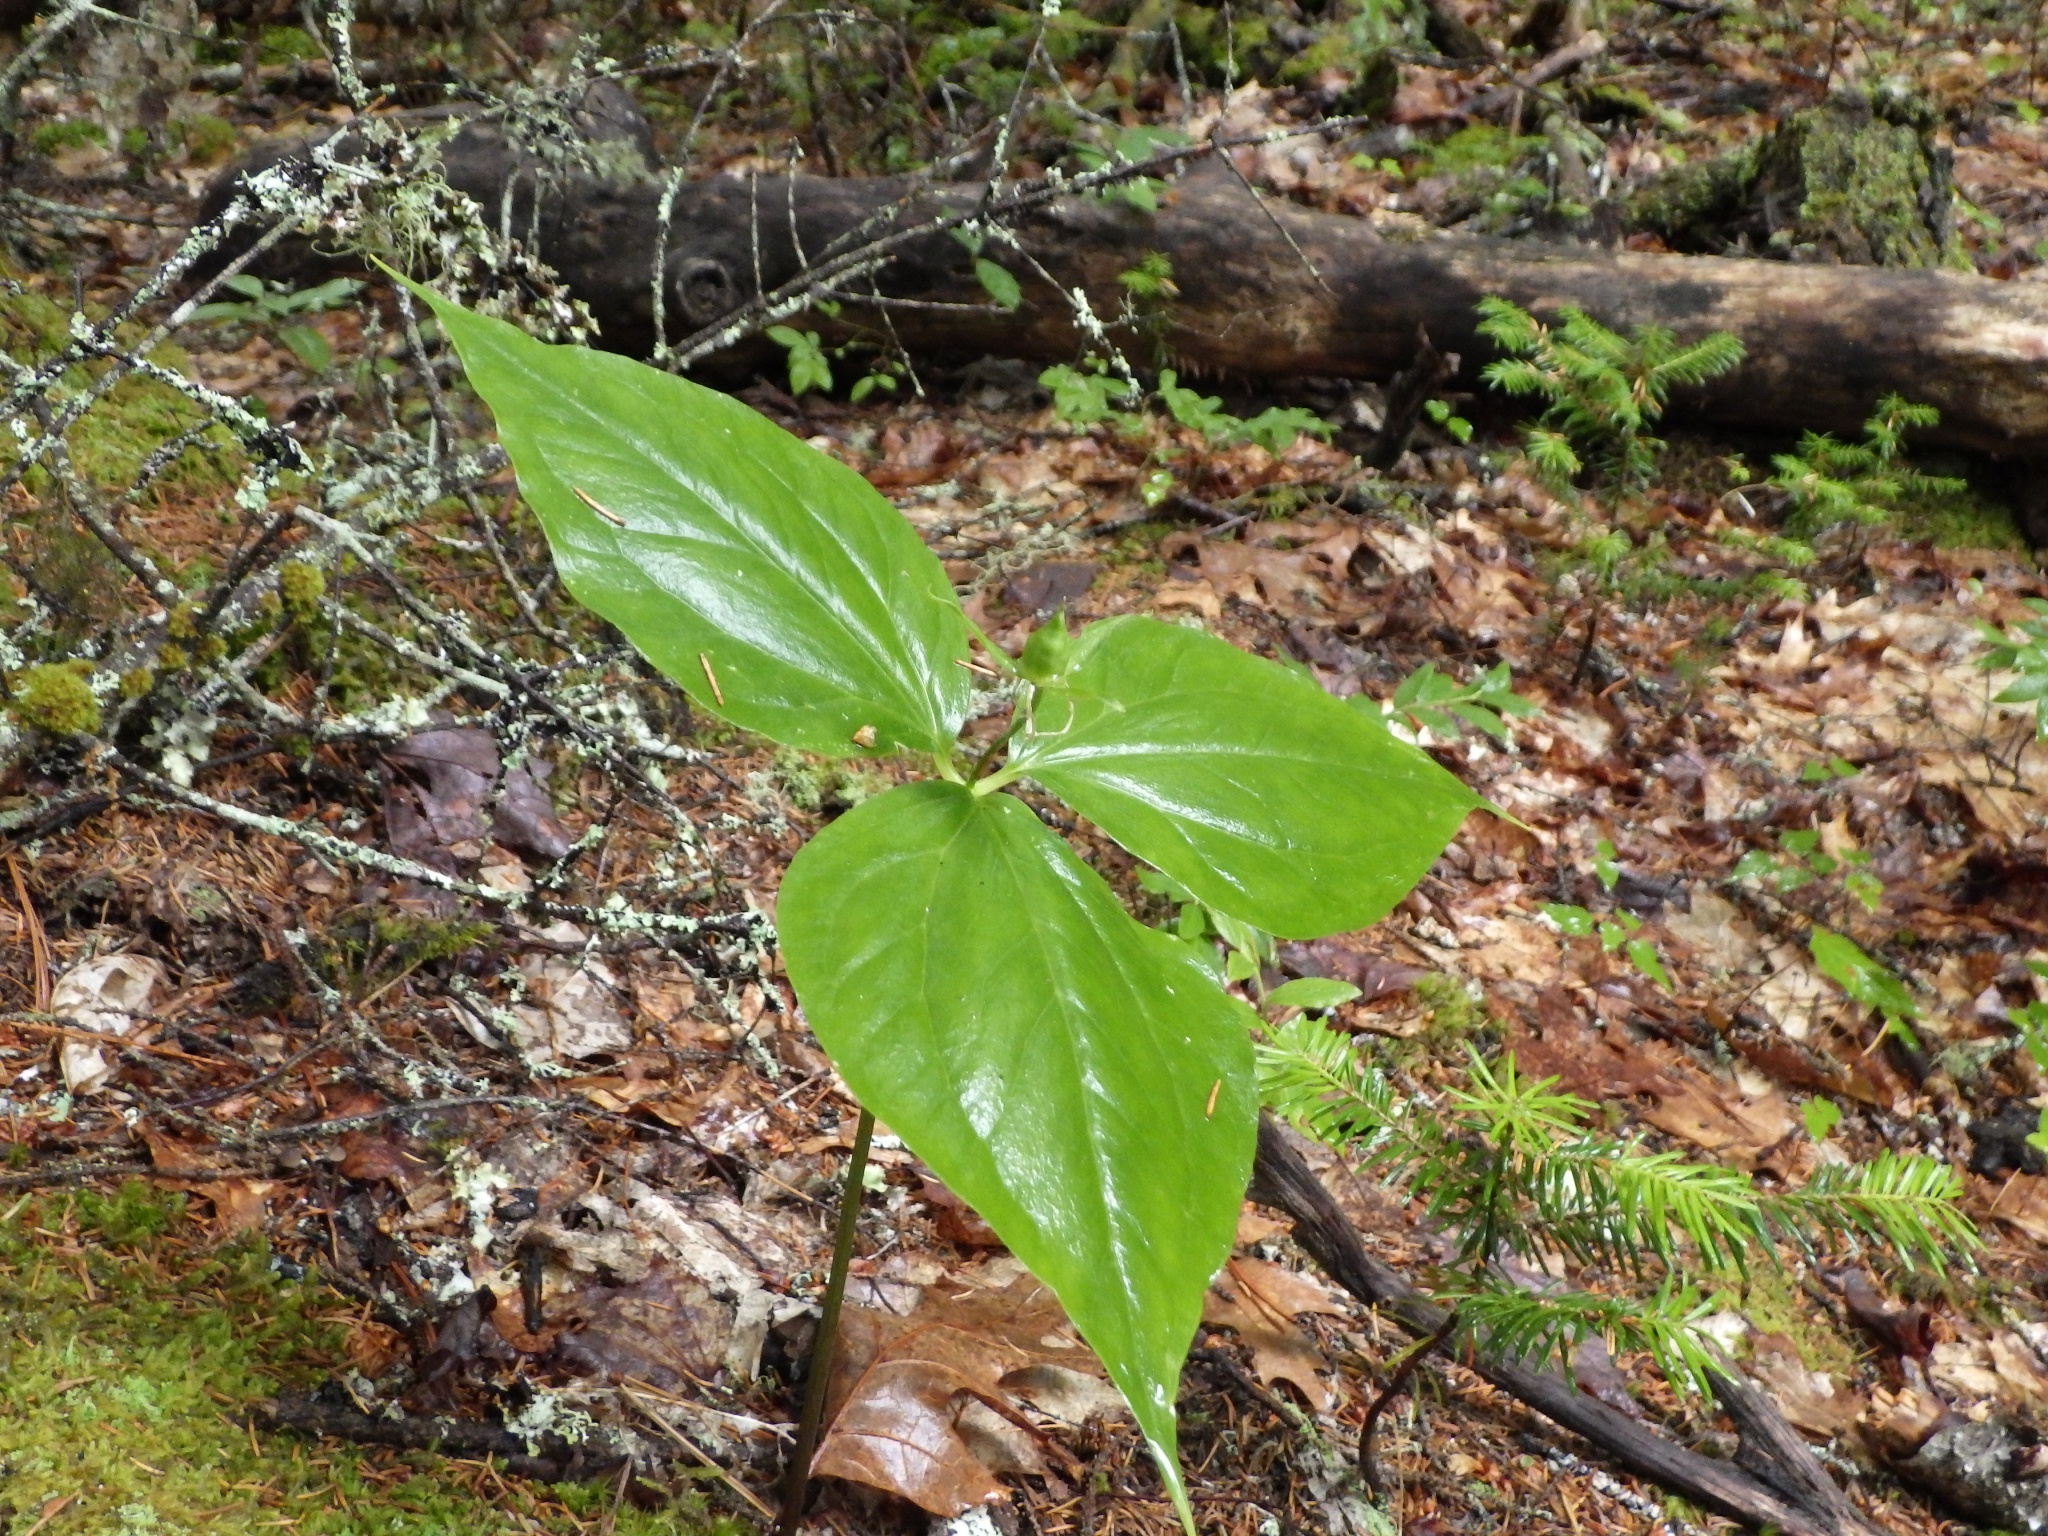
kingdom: Plantae
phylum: Tracheophyta
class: Liliopsida
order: Liliales
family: Melanthiaceae
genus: Trillium
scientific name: Trillium undulatum
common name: Paint trillium
